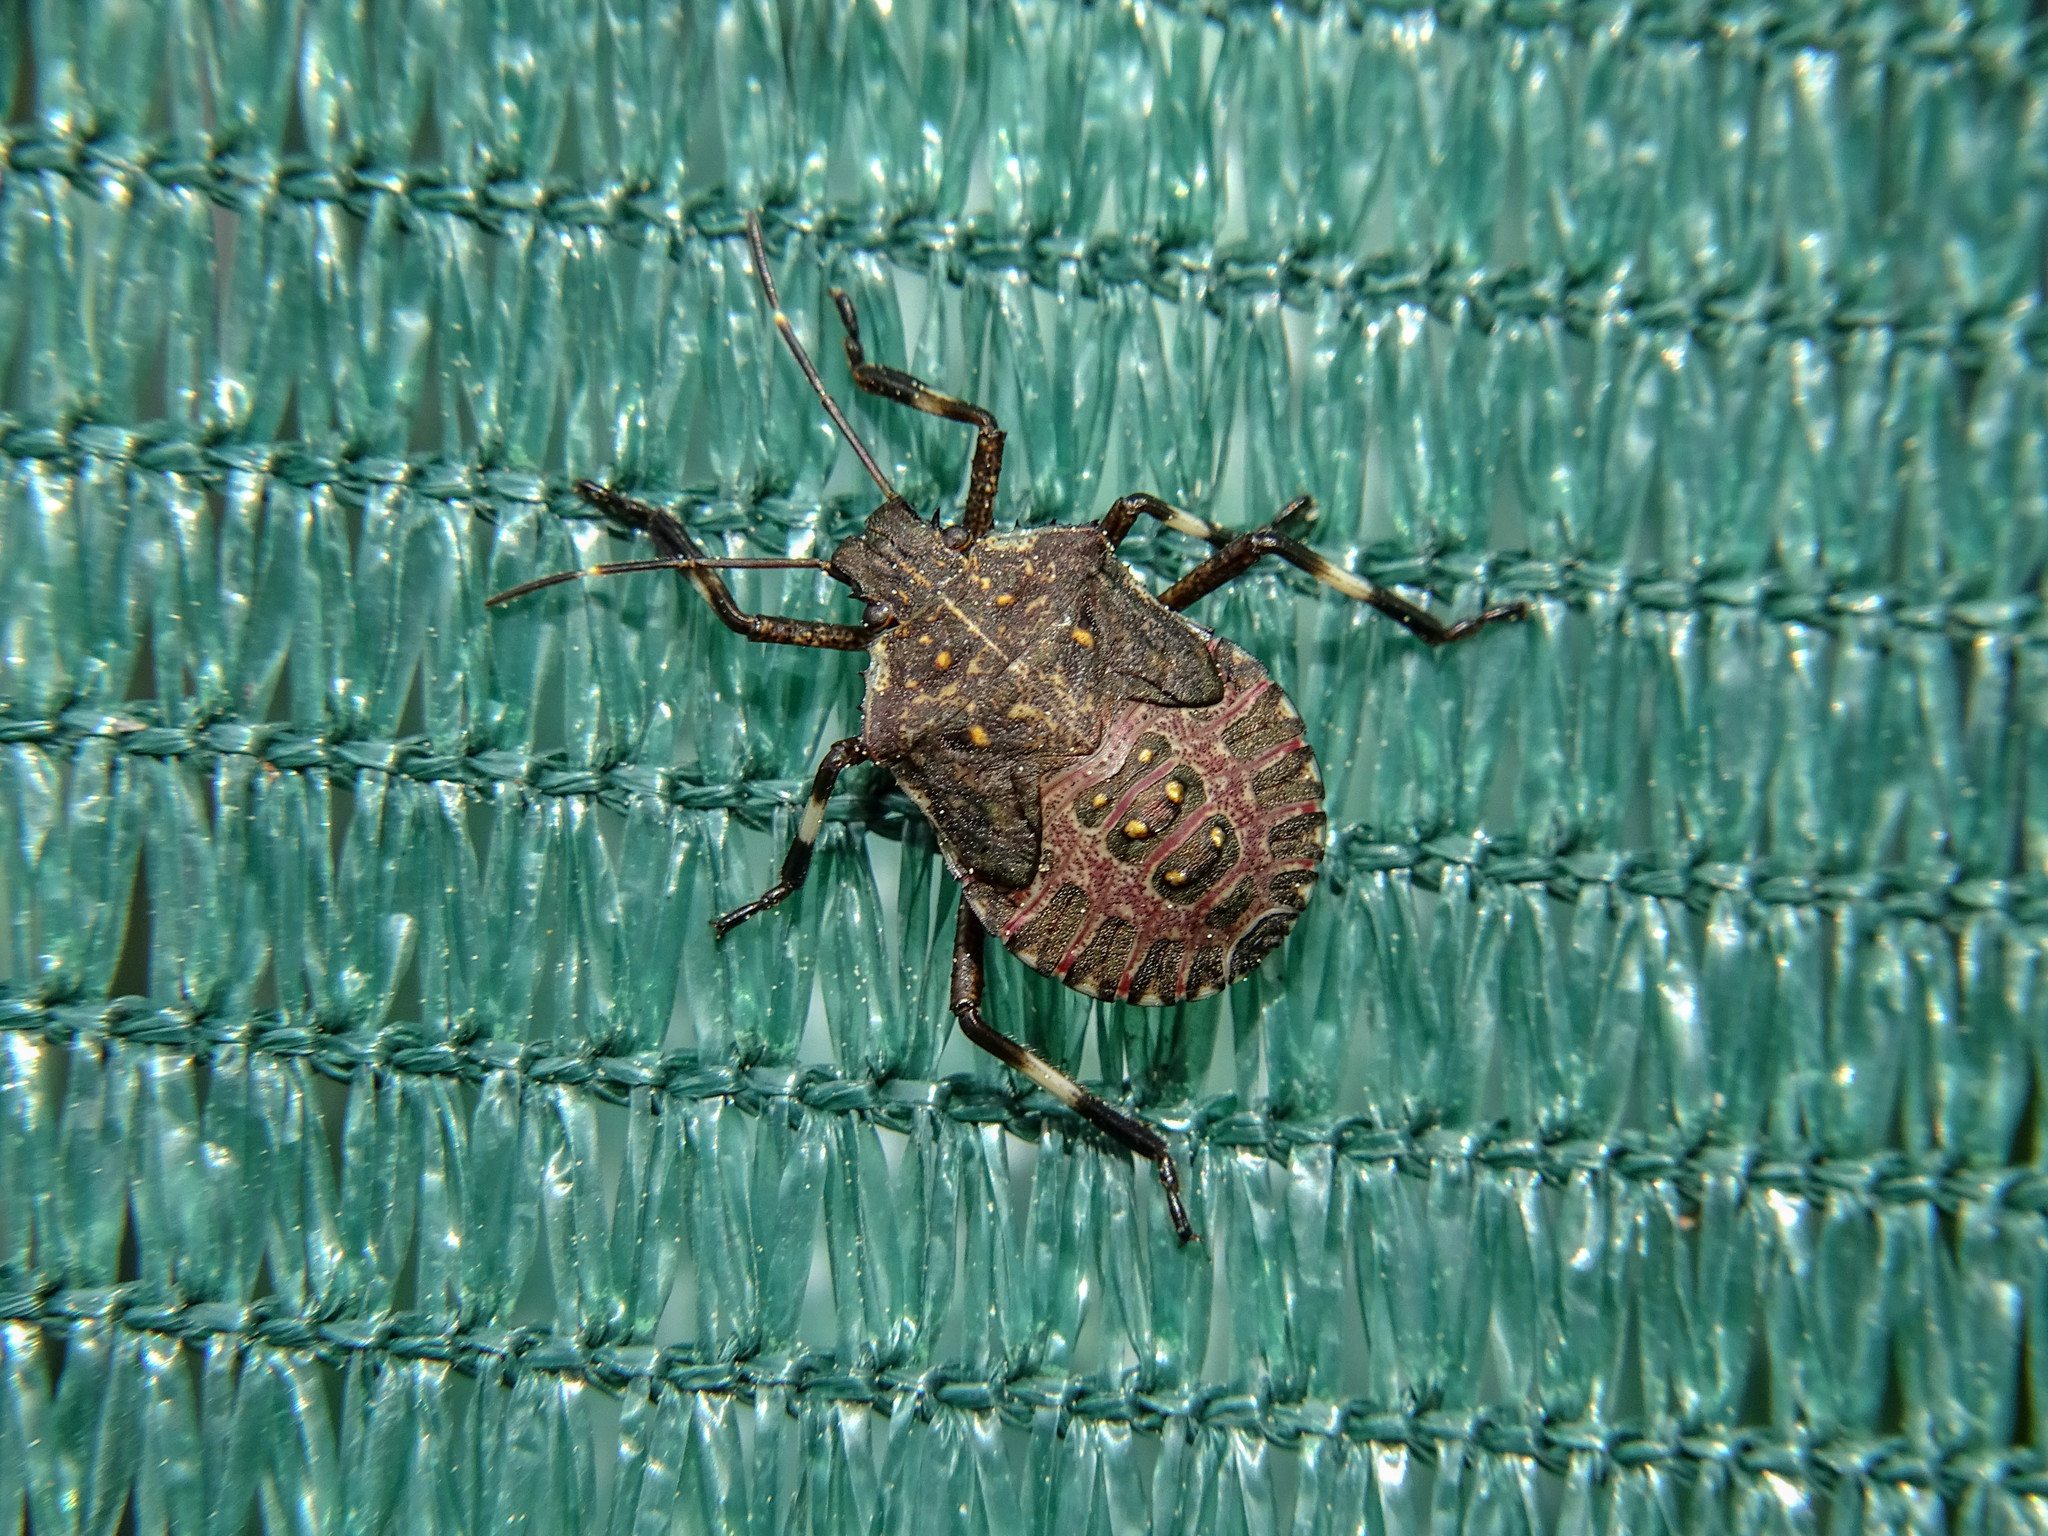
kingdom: Animalia
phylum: Arthropoda
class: Insecta
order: Hemiptera
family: Pentatomidae
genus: Halyomorpha
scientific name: Halyomorpha halys
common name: Brown marmorated stink bug
